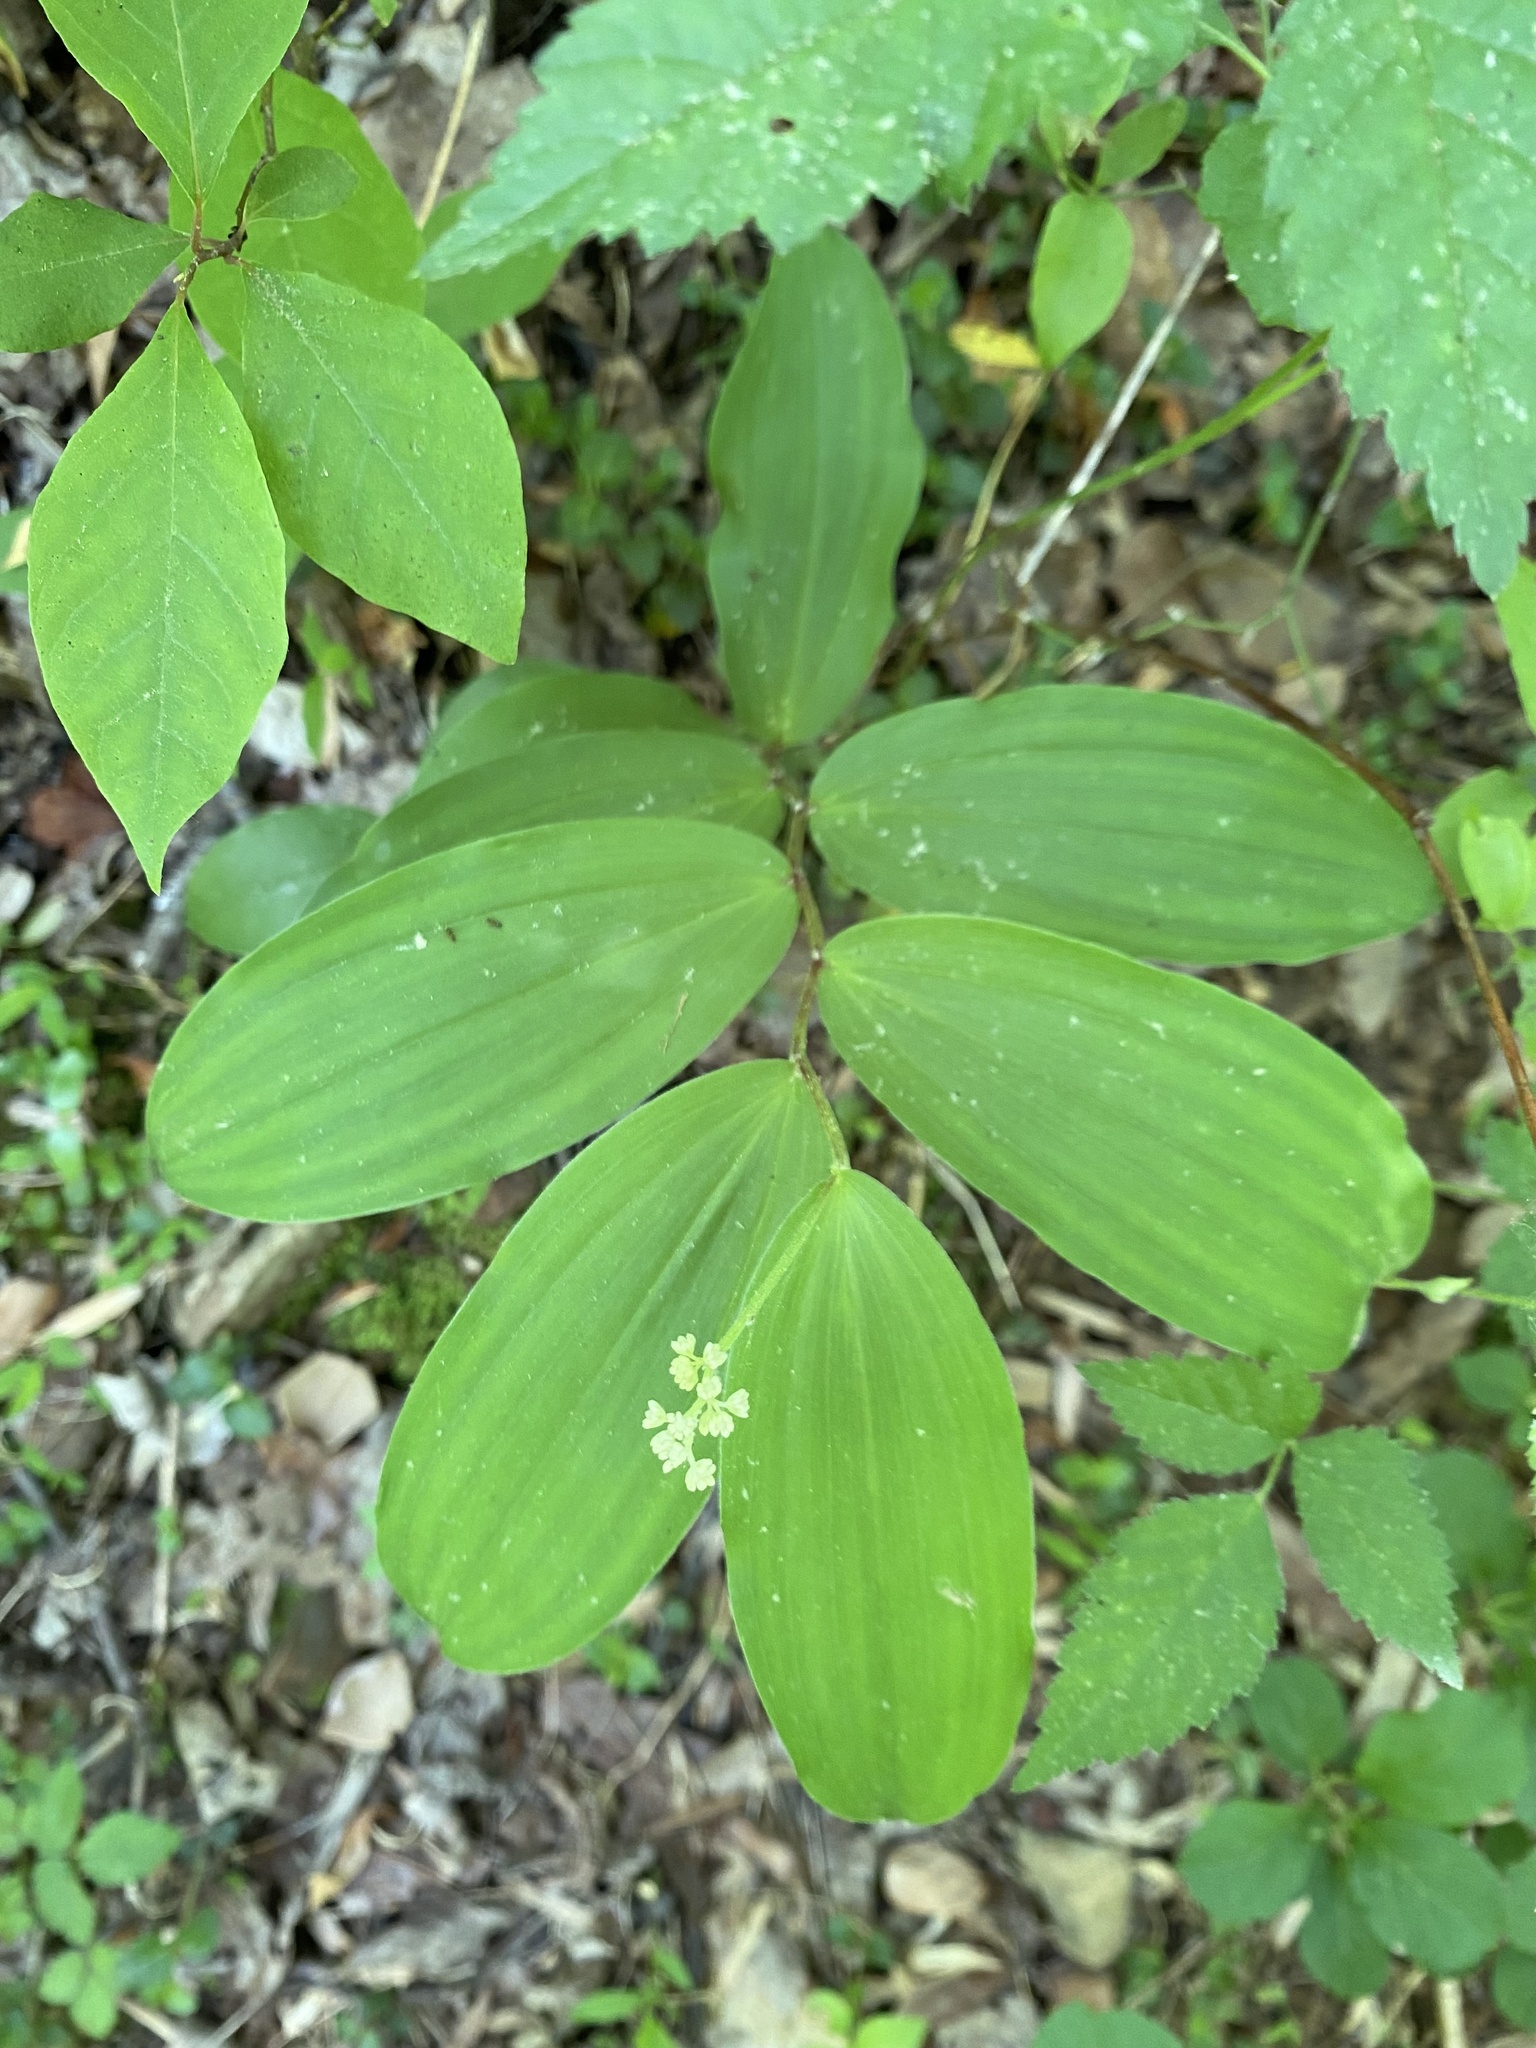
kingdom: Plantae
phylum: Tracheophyta
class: Liliopsida
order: Asparagales
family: Asparagaceae
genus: Maianthemum
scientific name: Maianthemum racemosum
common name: False spikenard
